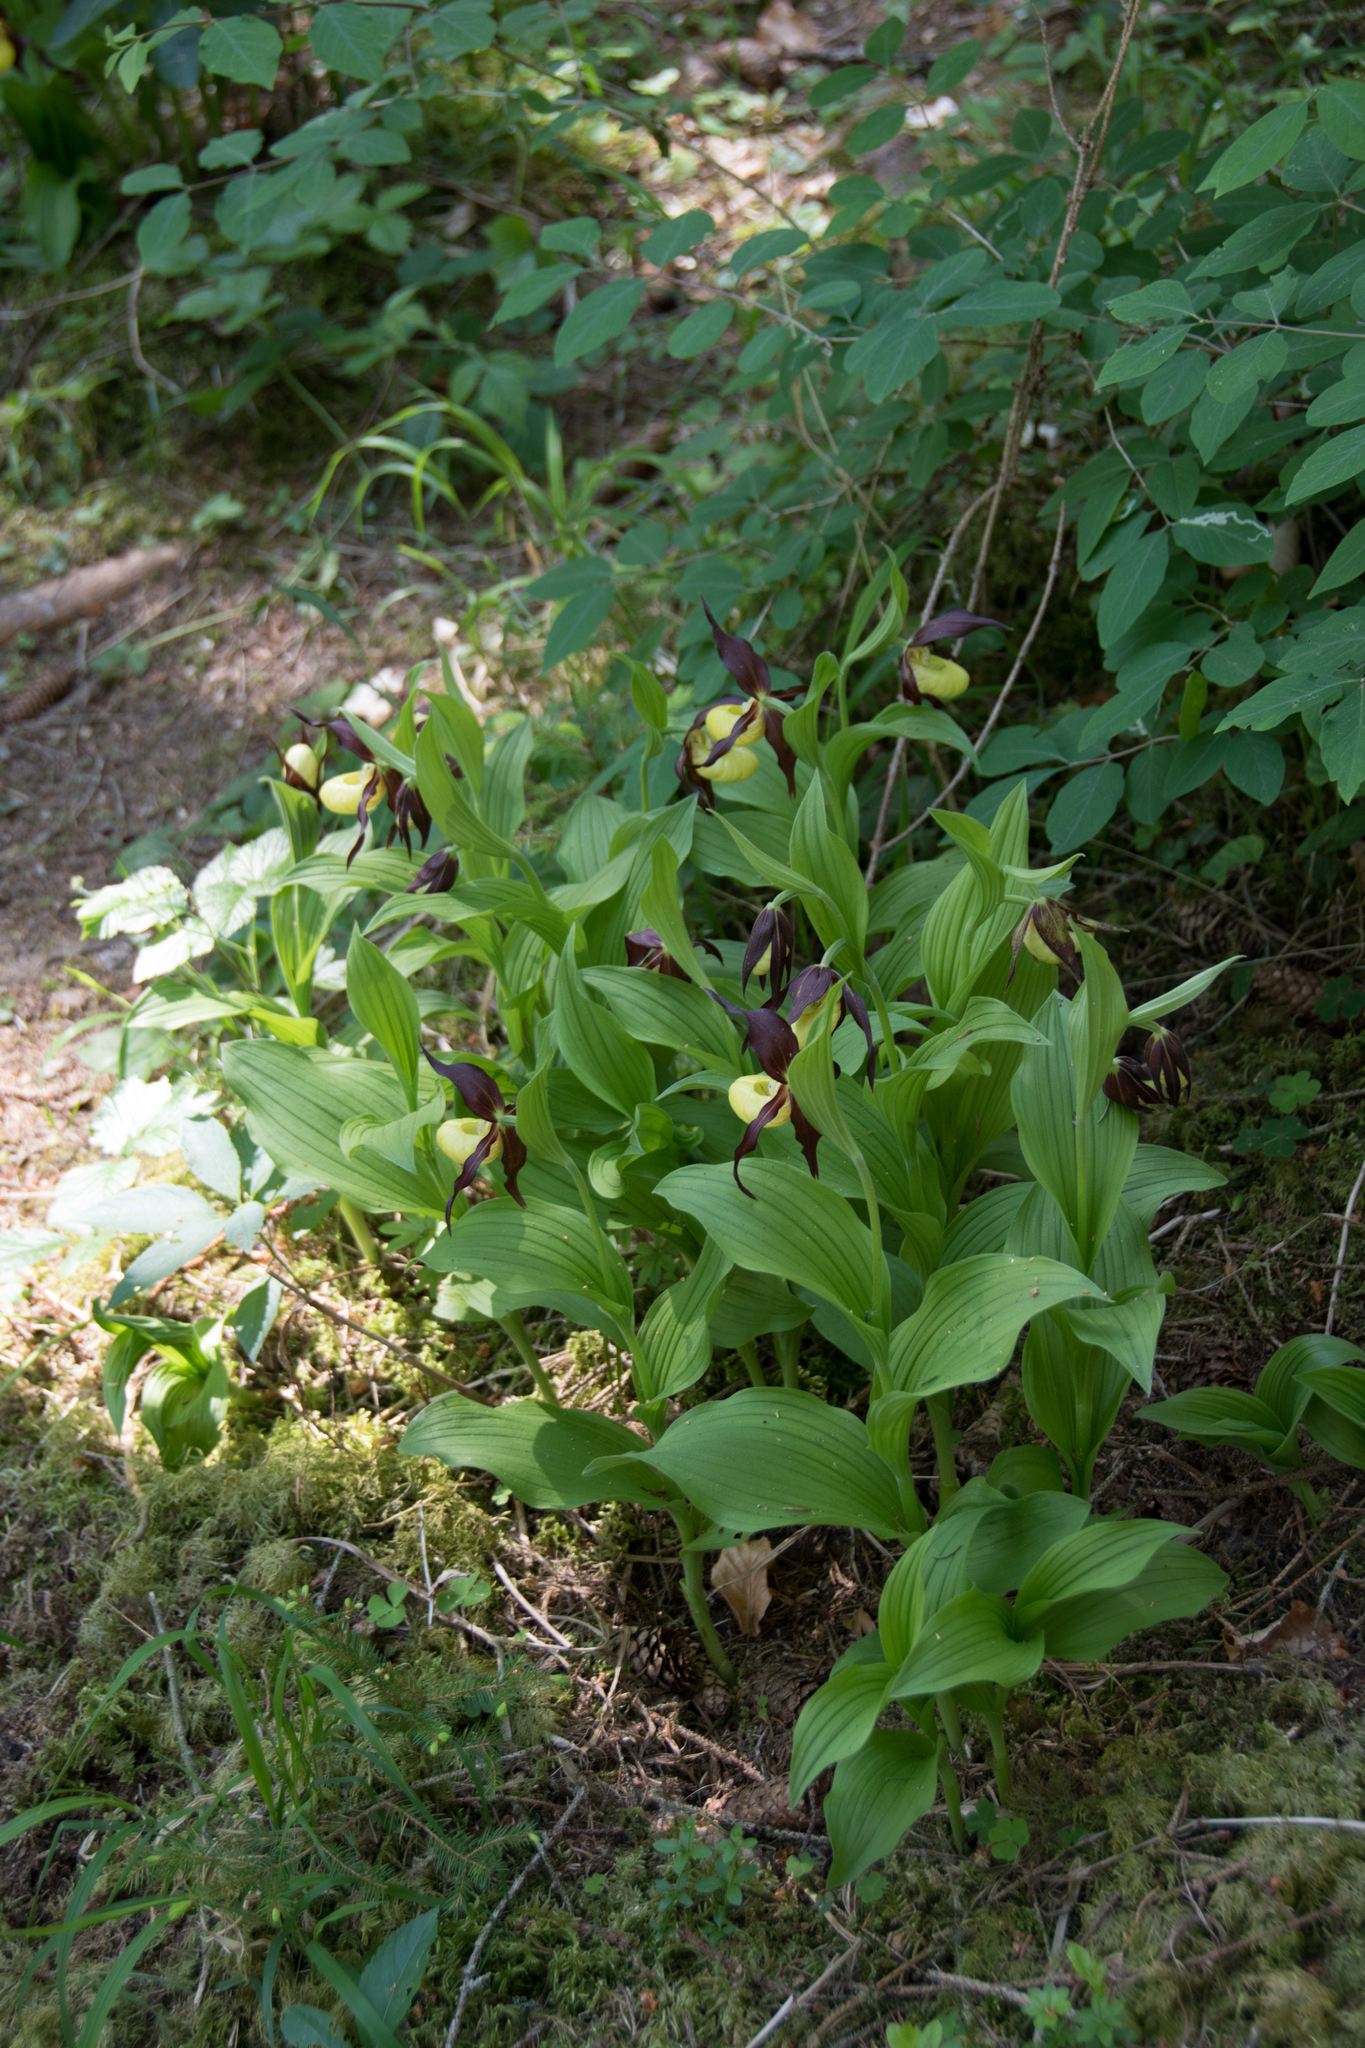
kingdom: Plantae
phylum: Tracheophyta
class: Liliopsida
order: Asparagales
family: Orchidaceae
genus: Cypripedium
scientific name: Cypripedium calceolus
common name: Lady's-slipper
